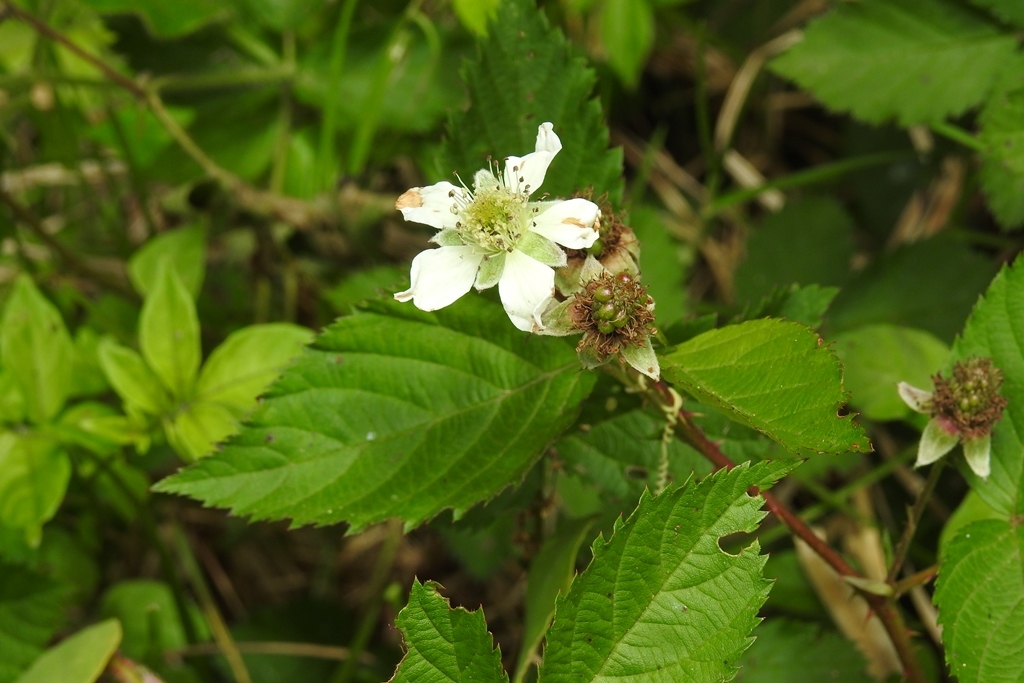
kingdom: Plantae
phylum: Tracheophyta
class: Magnoliopsida
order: Rosales
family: Rosaceae
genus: Rubus
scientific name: Rubus adenotrichos
